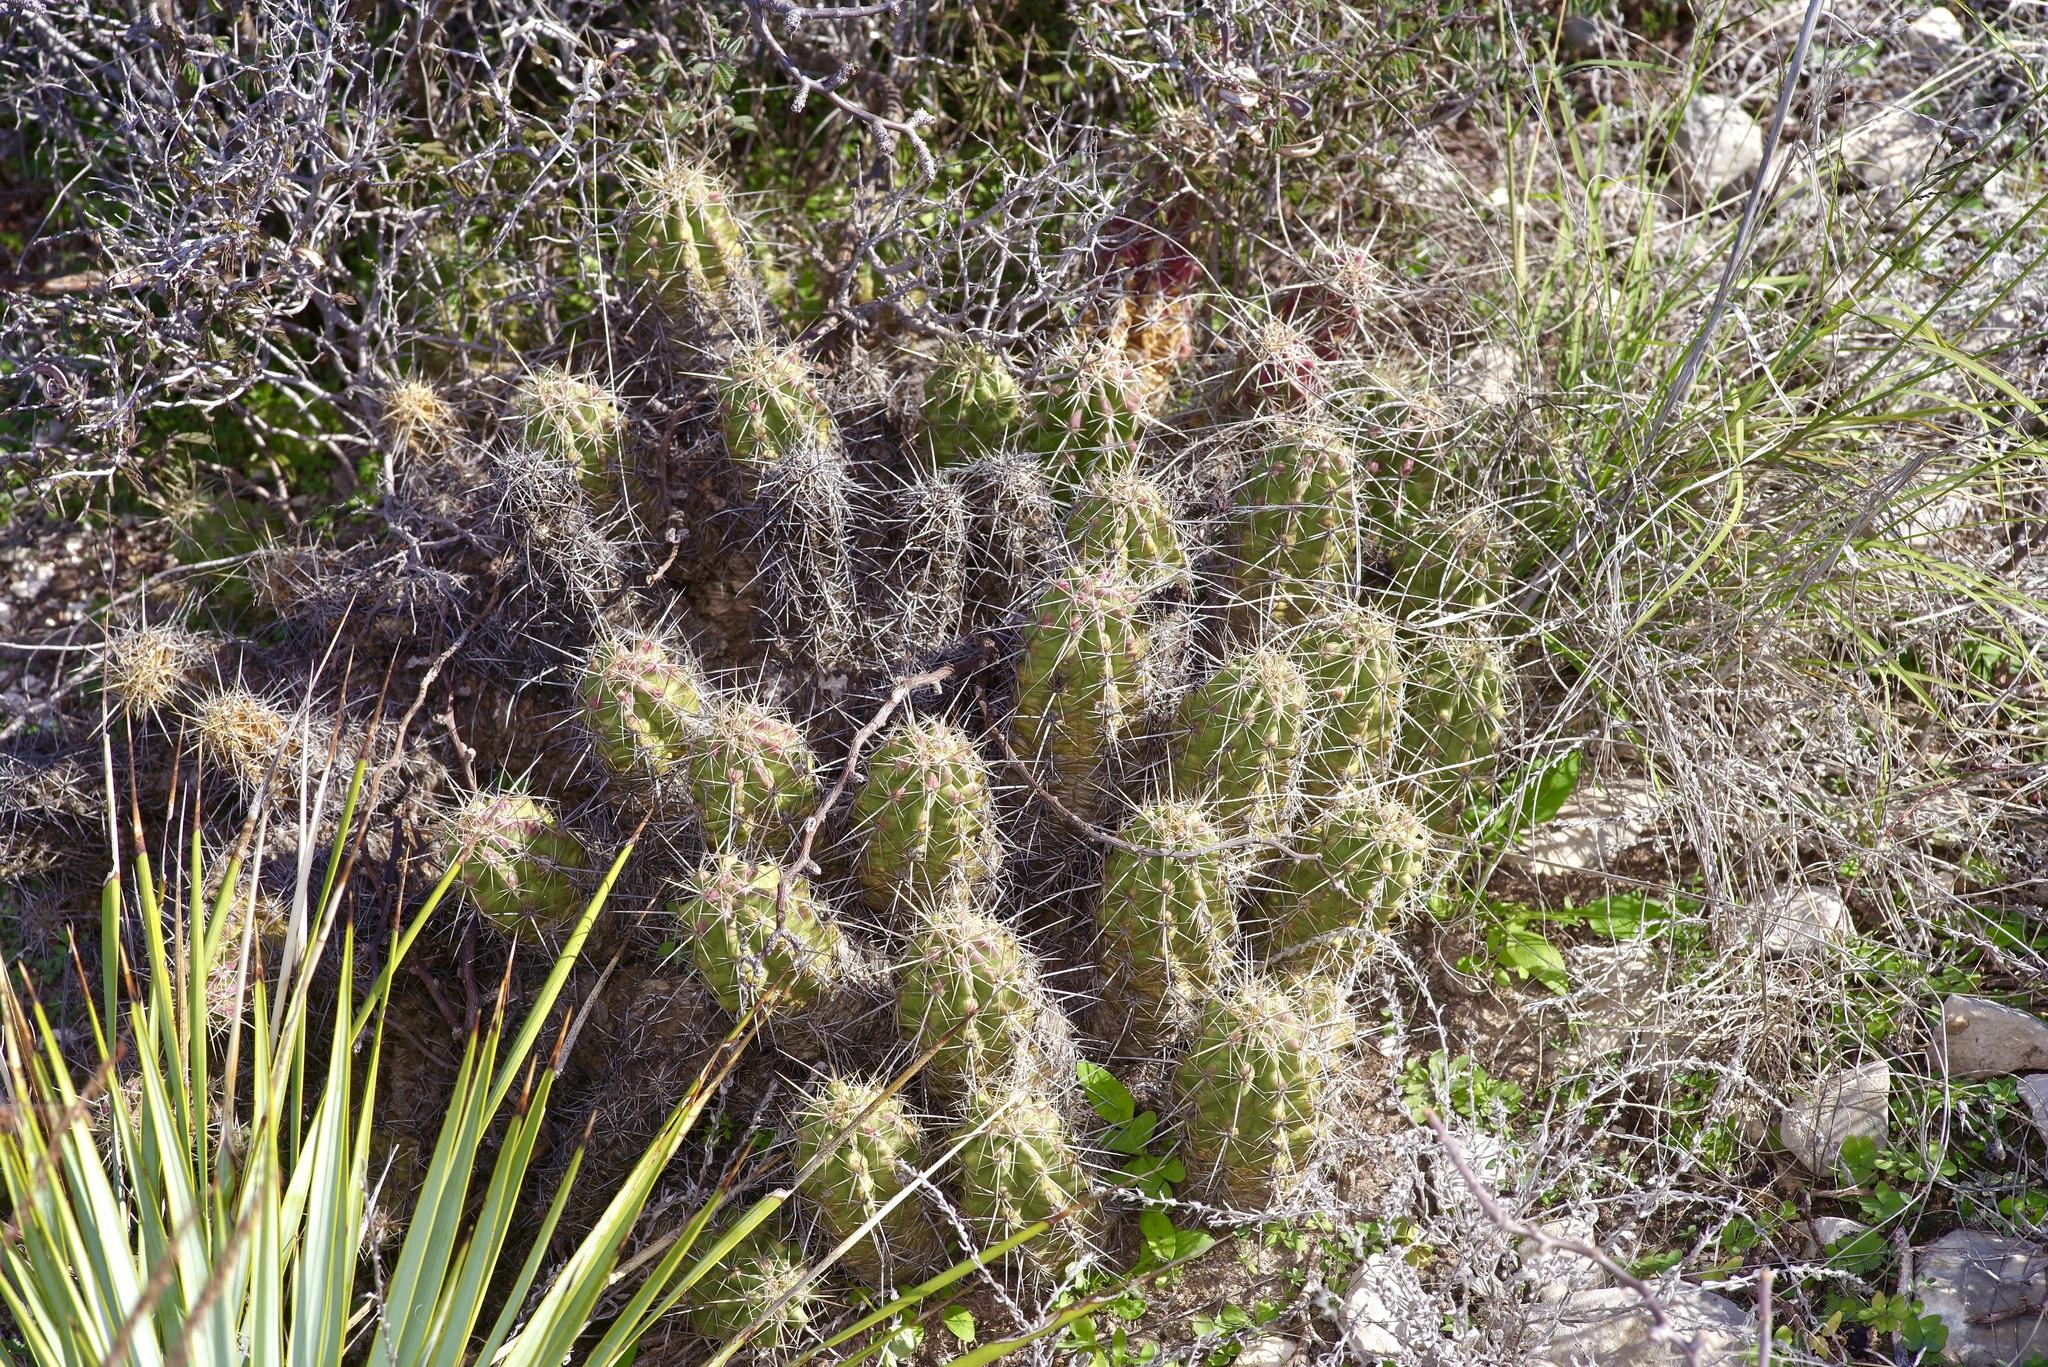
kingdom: Plantae
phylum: Tracheophyta
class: Magnoliopsida
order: Caryophyllales
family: Cactaceae
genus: Echinocereus
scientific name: Echinocereus enneacanthus
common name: Pitaya
